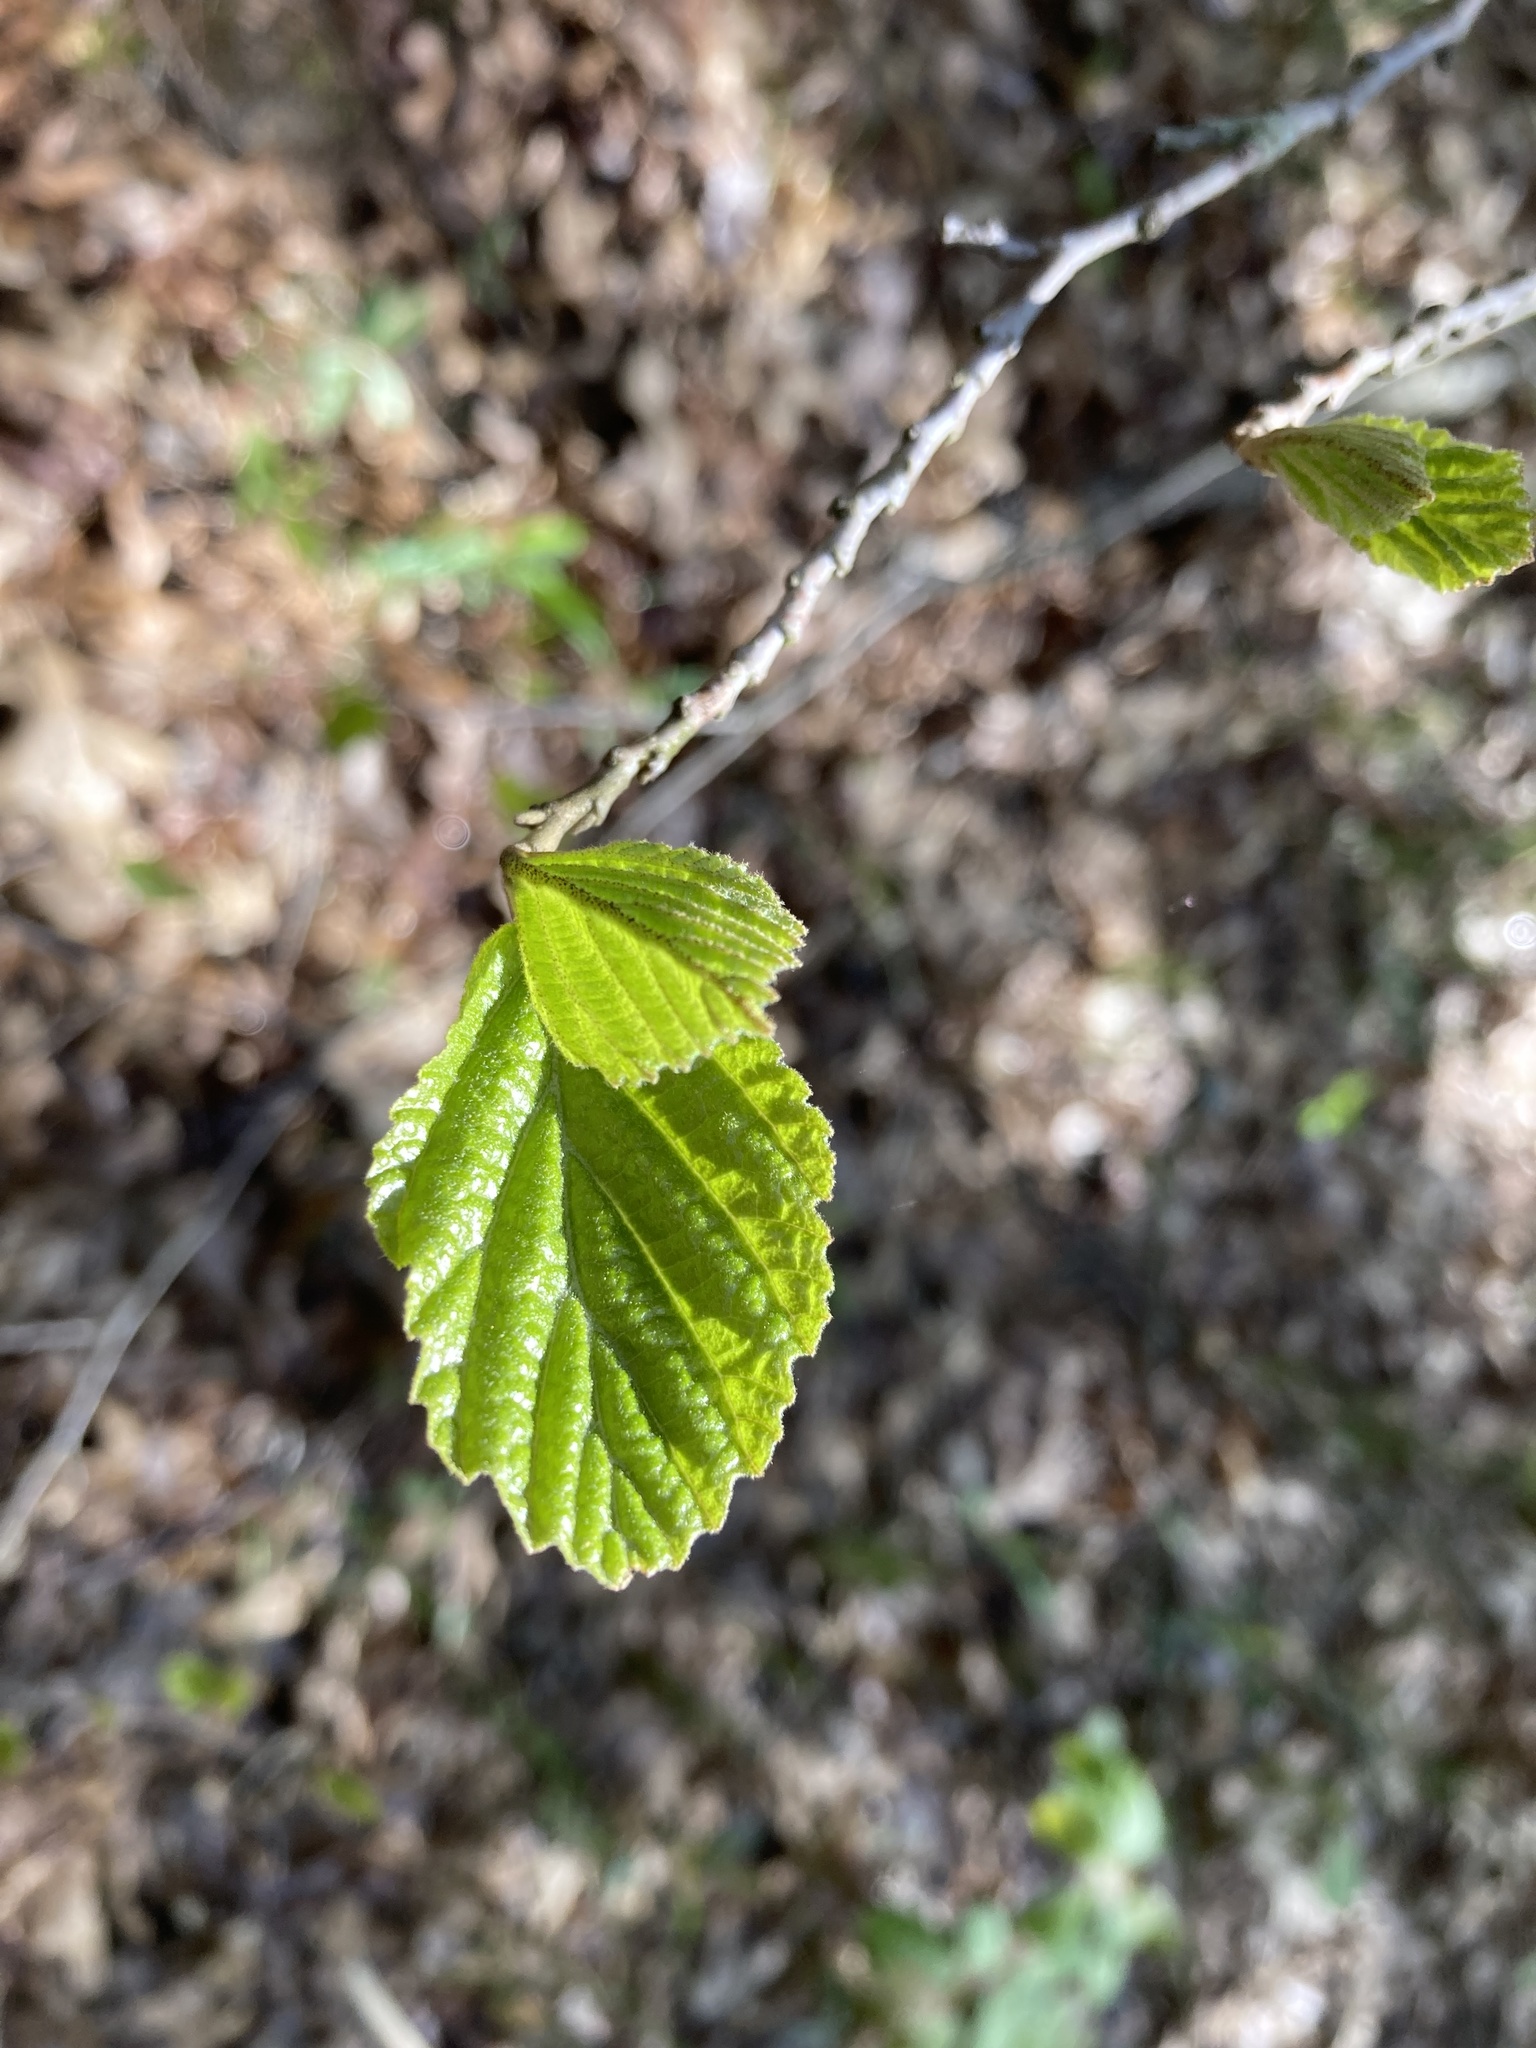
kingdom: Plantae
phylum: Tracheophyta
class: Magnoliopsida
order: Saxifragales
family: Hamamelidaceae
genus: Hamamelis
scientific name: Hamamelis virginiana
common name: Witch-hazel
